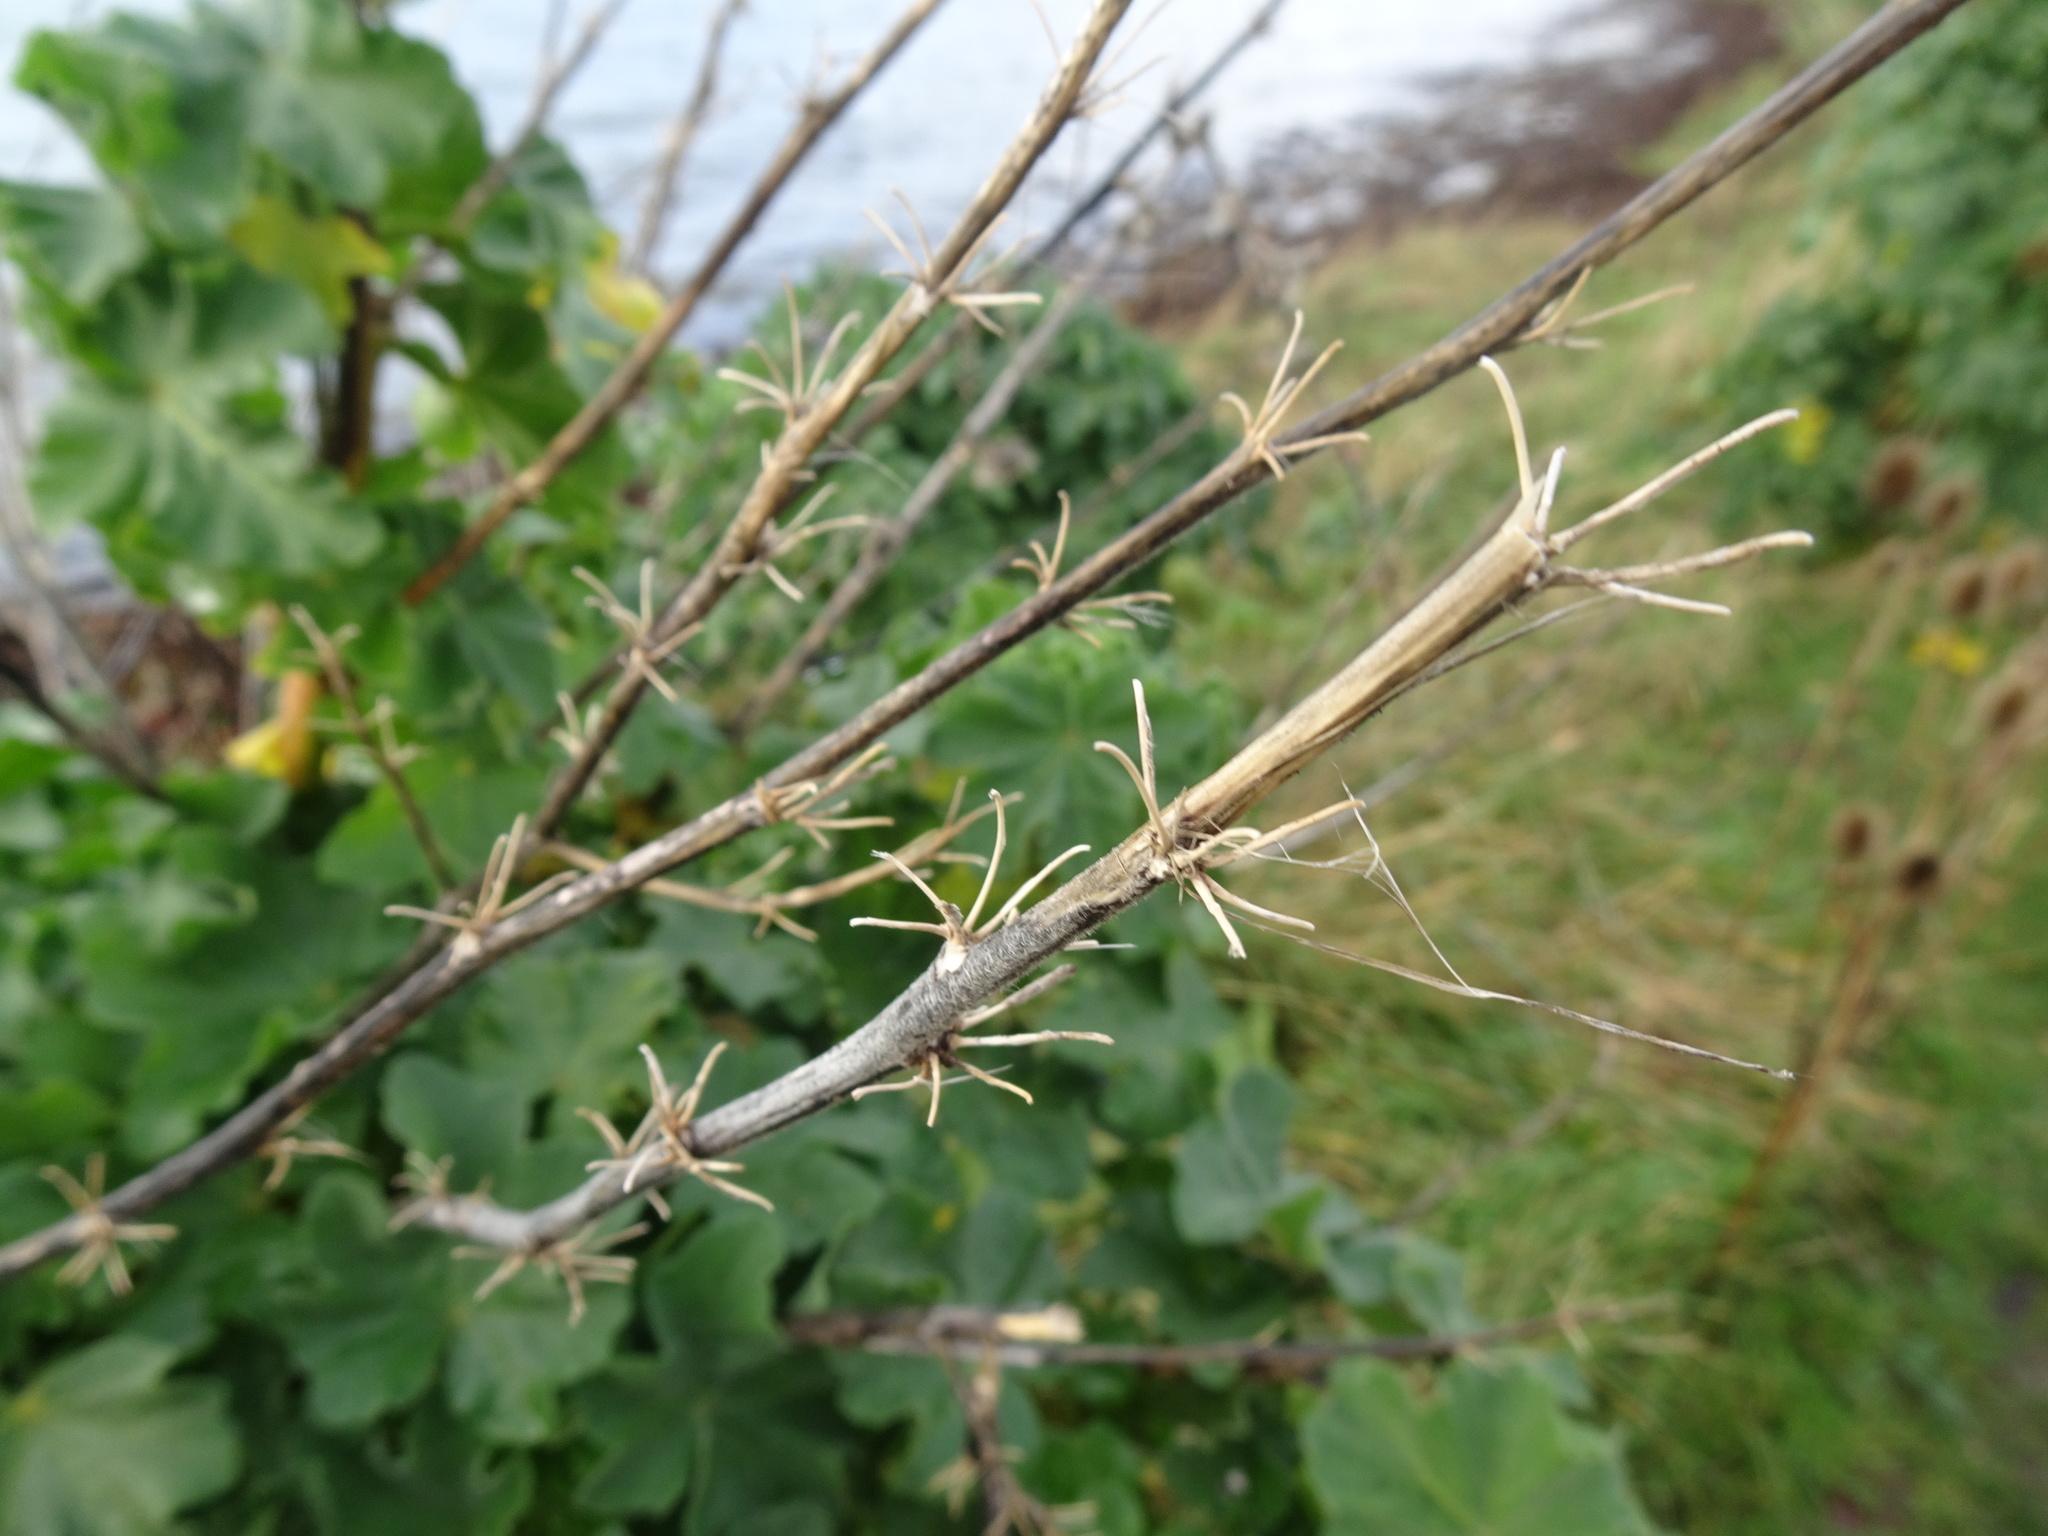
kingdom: Plantae
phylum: Tracheophyta
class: Magnoliopsida
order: Malvales
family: Malvaceae
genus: Malva
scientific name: Malva arborea
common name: Tree mallow
